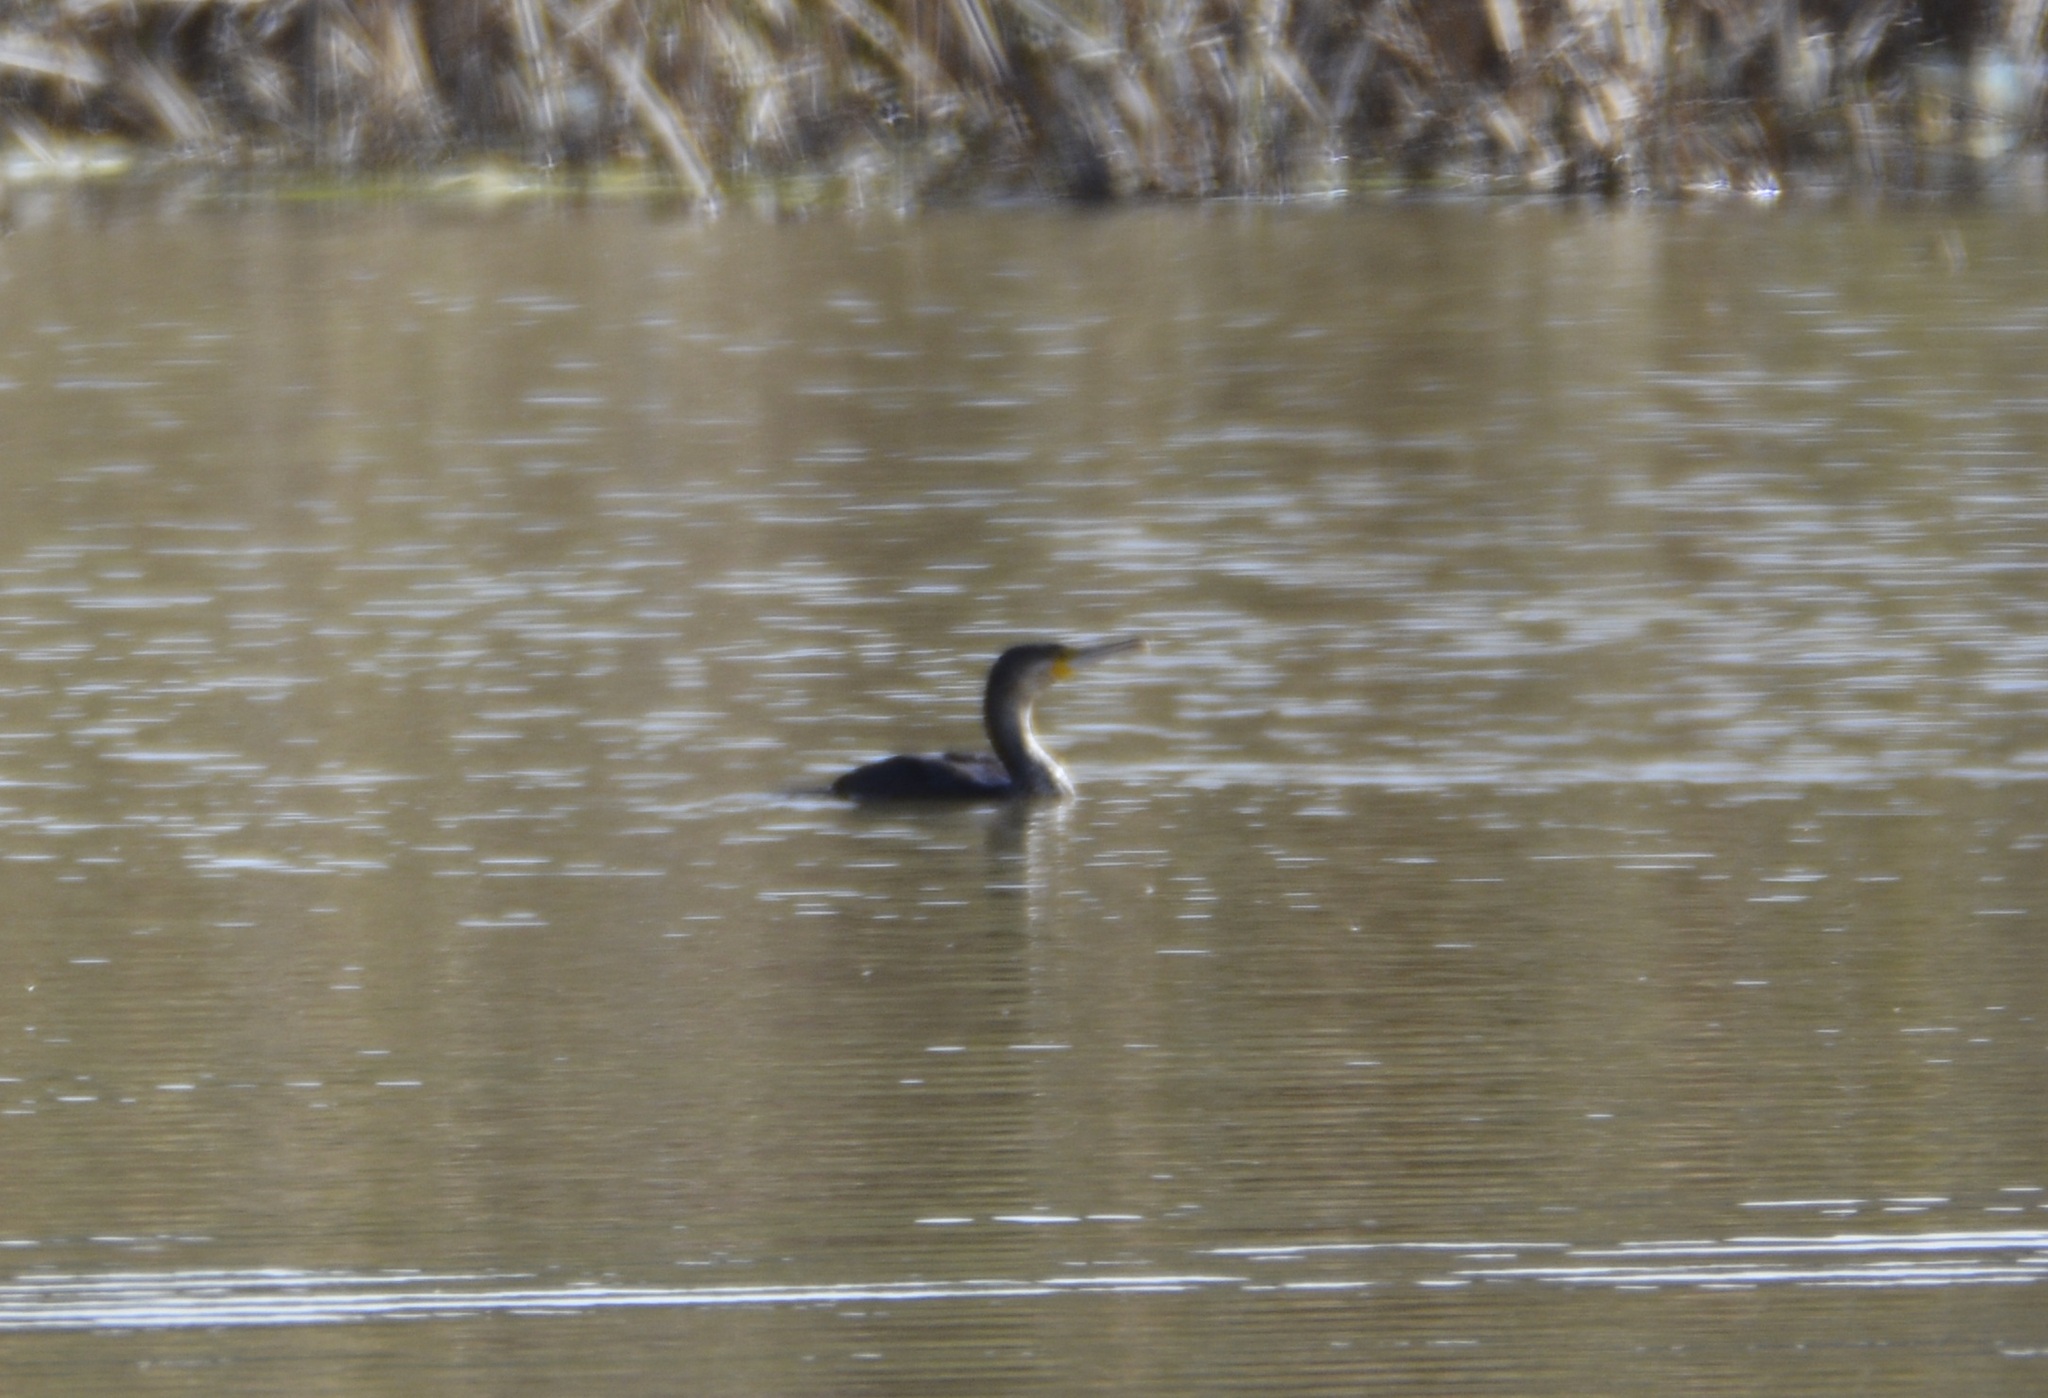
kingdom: Animalia
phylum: Chordata
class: Aves
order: Suliformes
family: Phalacrocoracidae
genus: Phalacrocorax
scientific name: Phalacrocorax carbo
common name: Great cormorant
